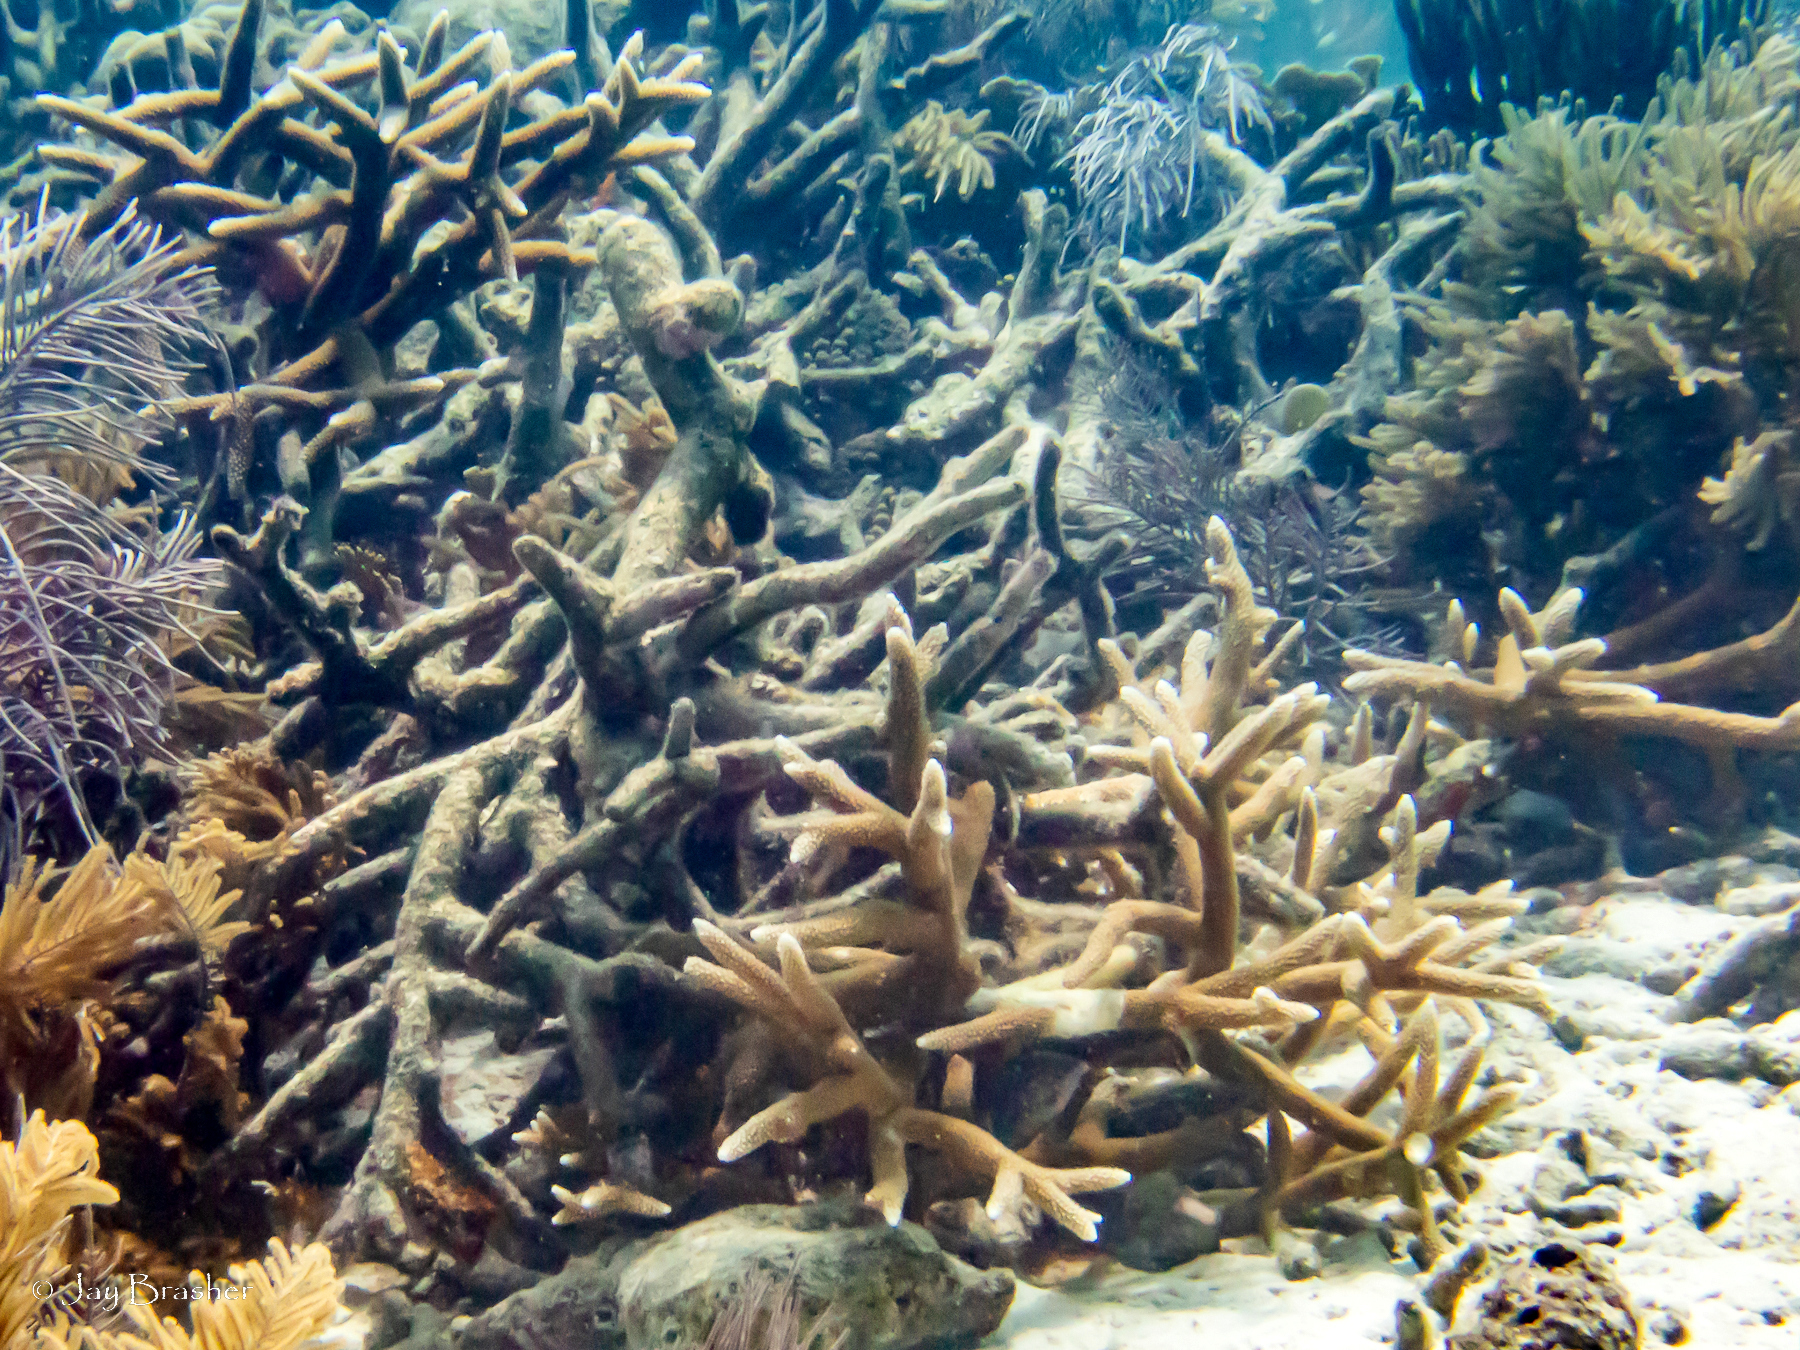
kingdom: Animalia
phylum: Cnidaria
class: Anthozoa
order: Scleractinia
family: Acroporidae
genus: Acropora
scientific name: Acropora cervicornis
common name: Staghorn coral
